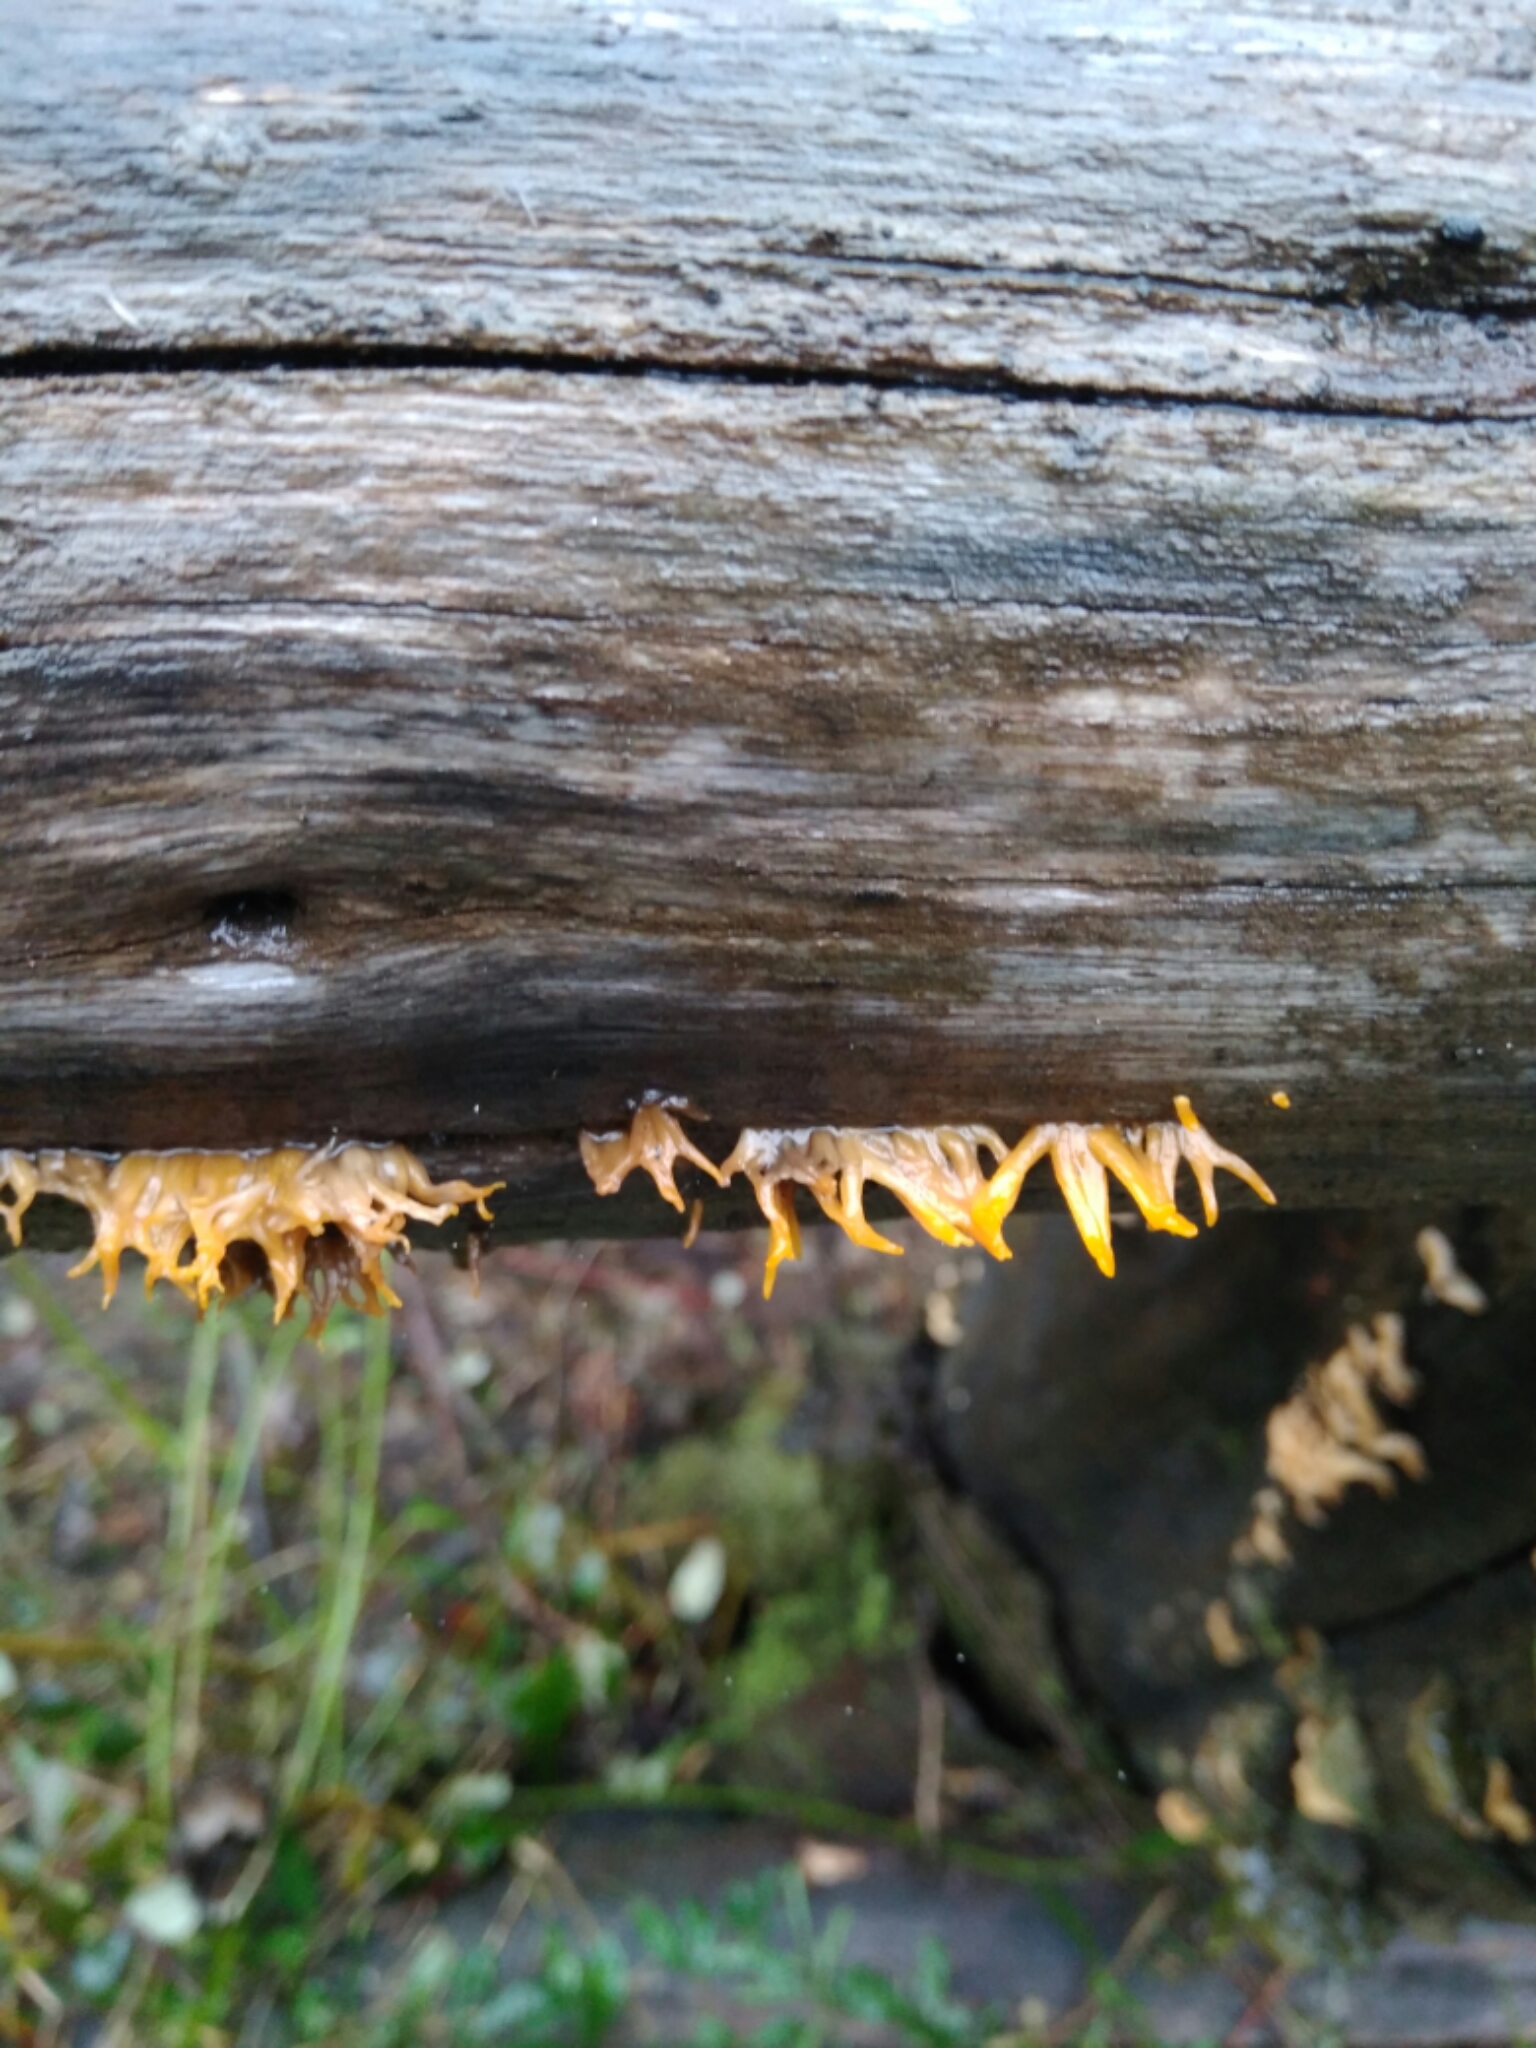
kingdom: Fungi
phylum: Basidiomycota
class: Dacrymycetes
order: Dacrymycetales
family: Dacrymycetaceae
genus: Calocera
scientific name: Calocera cornea
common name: Small stagshorn
